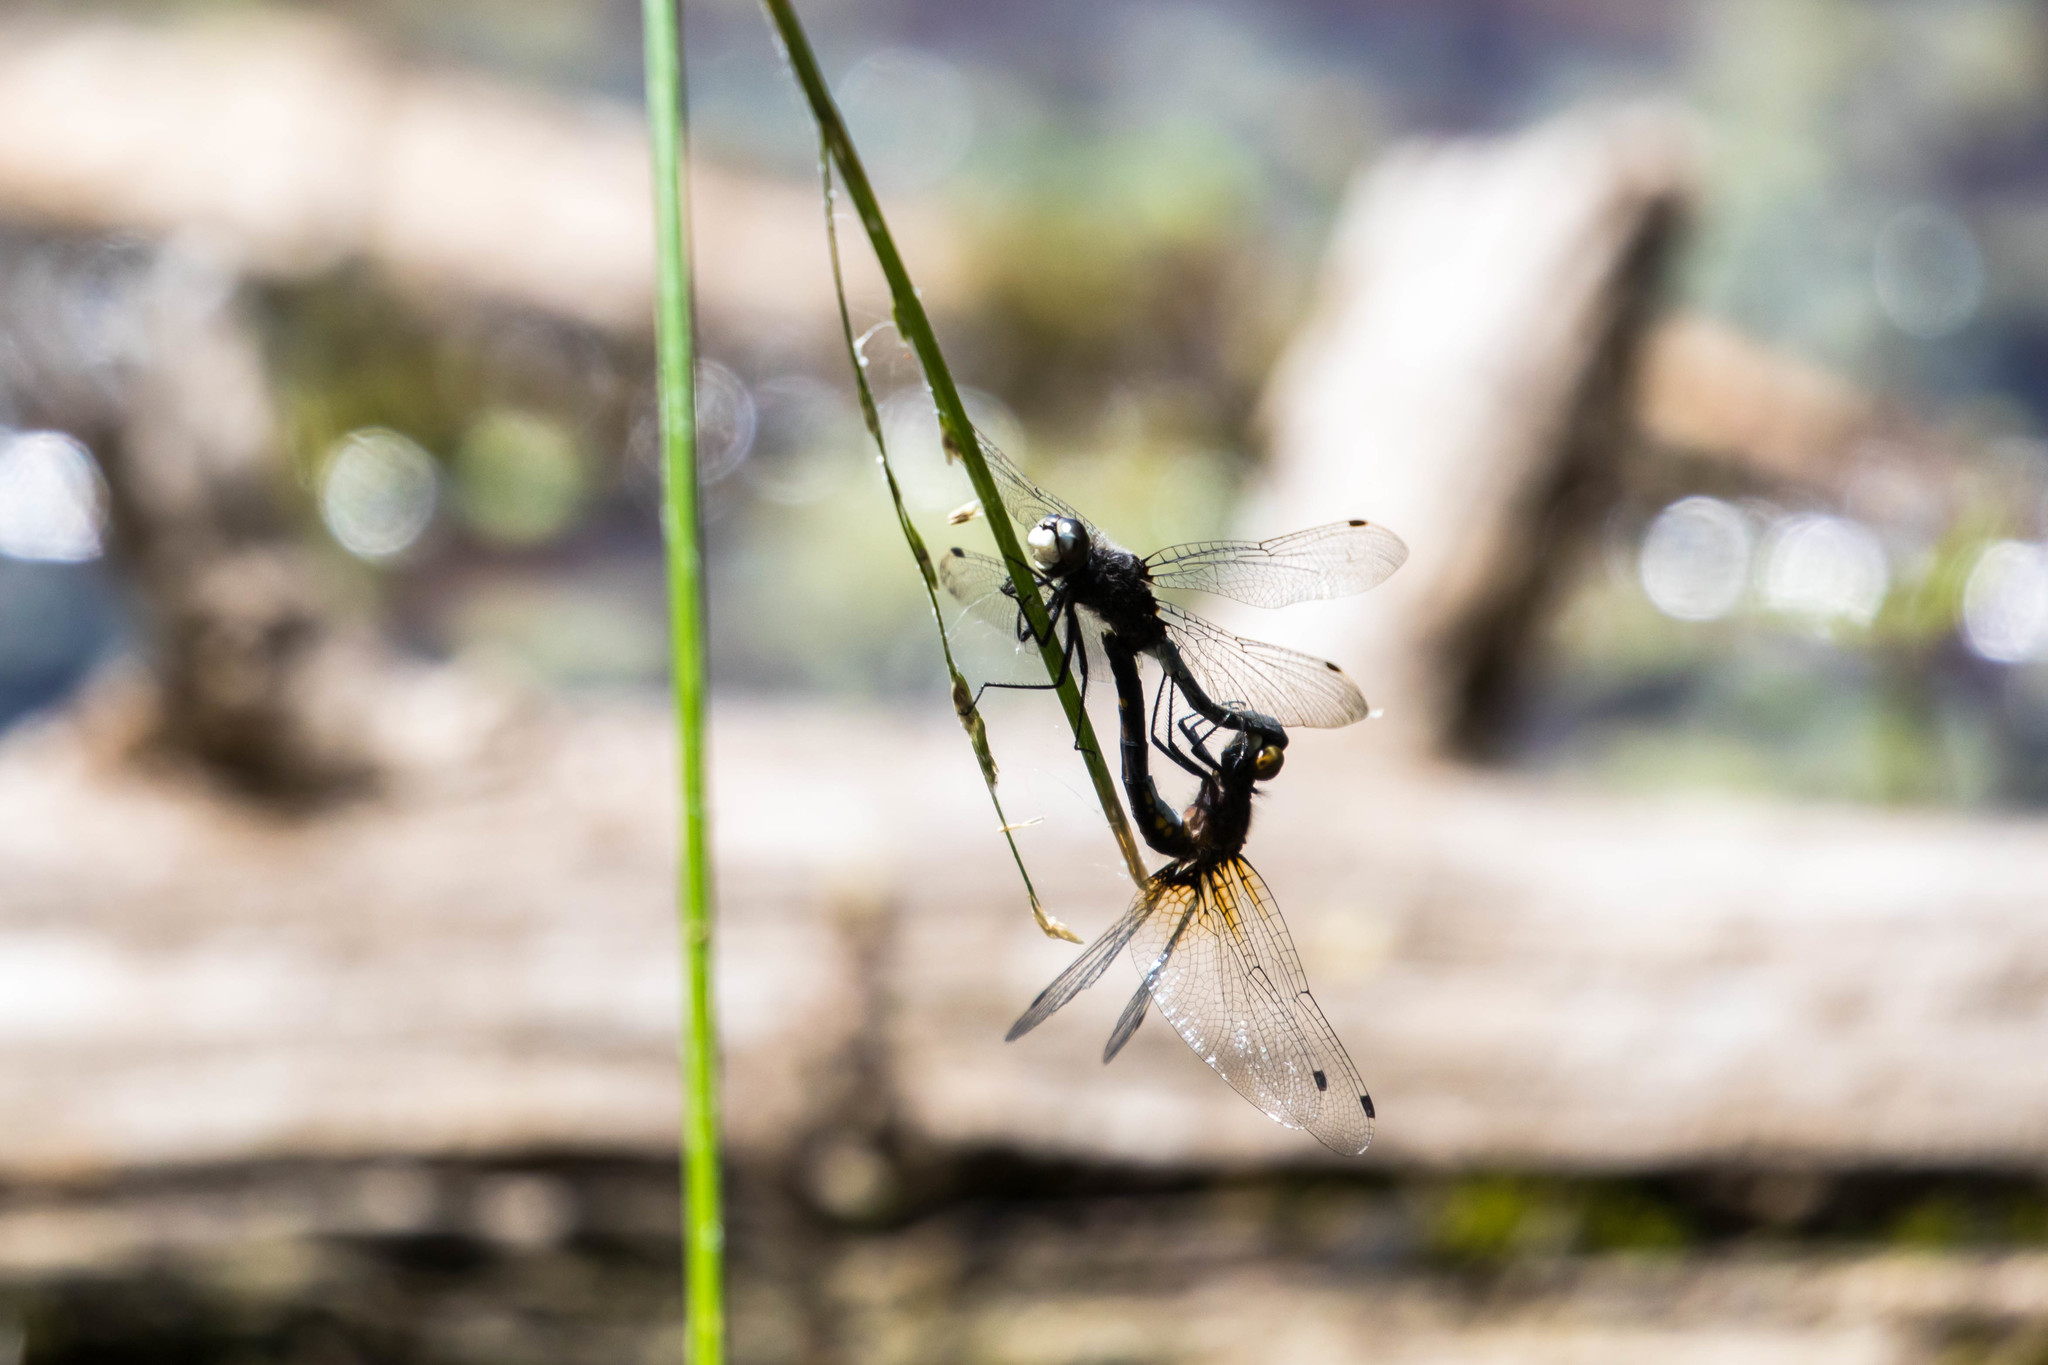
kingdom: Animalia
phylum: Arthropoda
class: Insecta
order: Odonata
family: Libellulidae
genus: Leucorrhinia
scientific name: Leucorrhinia intacta
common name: Dot-tailed whiteface
